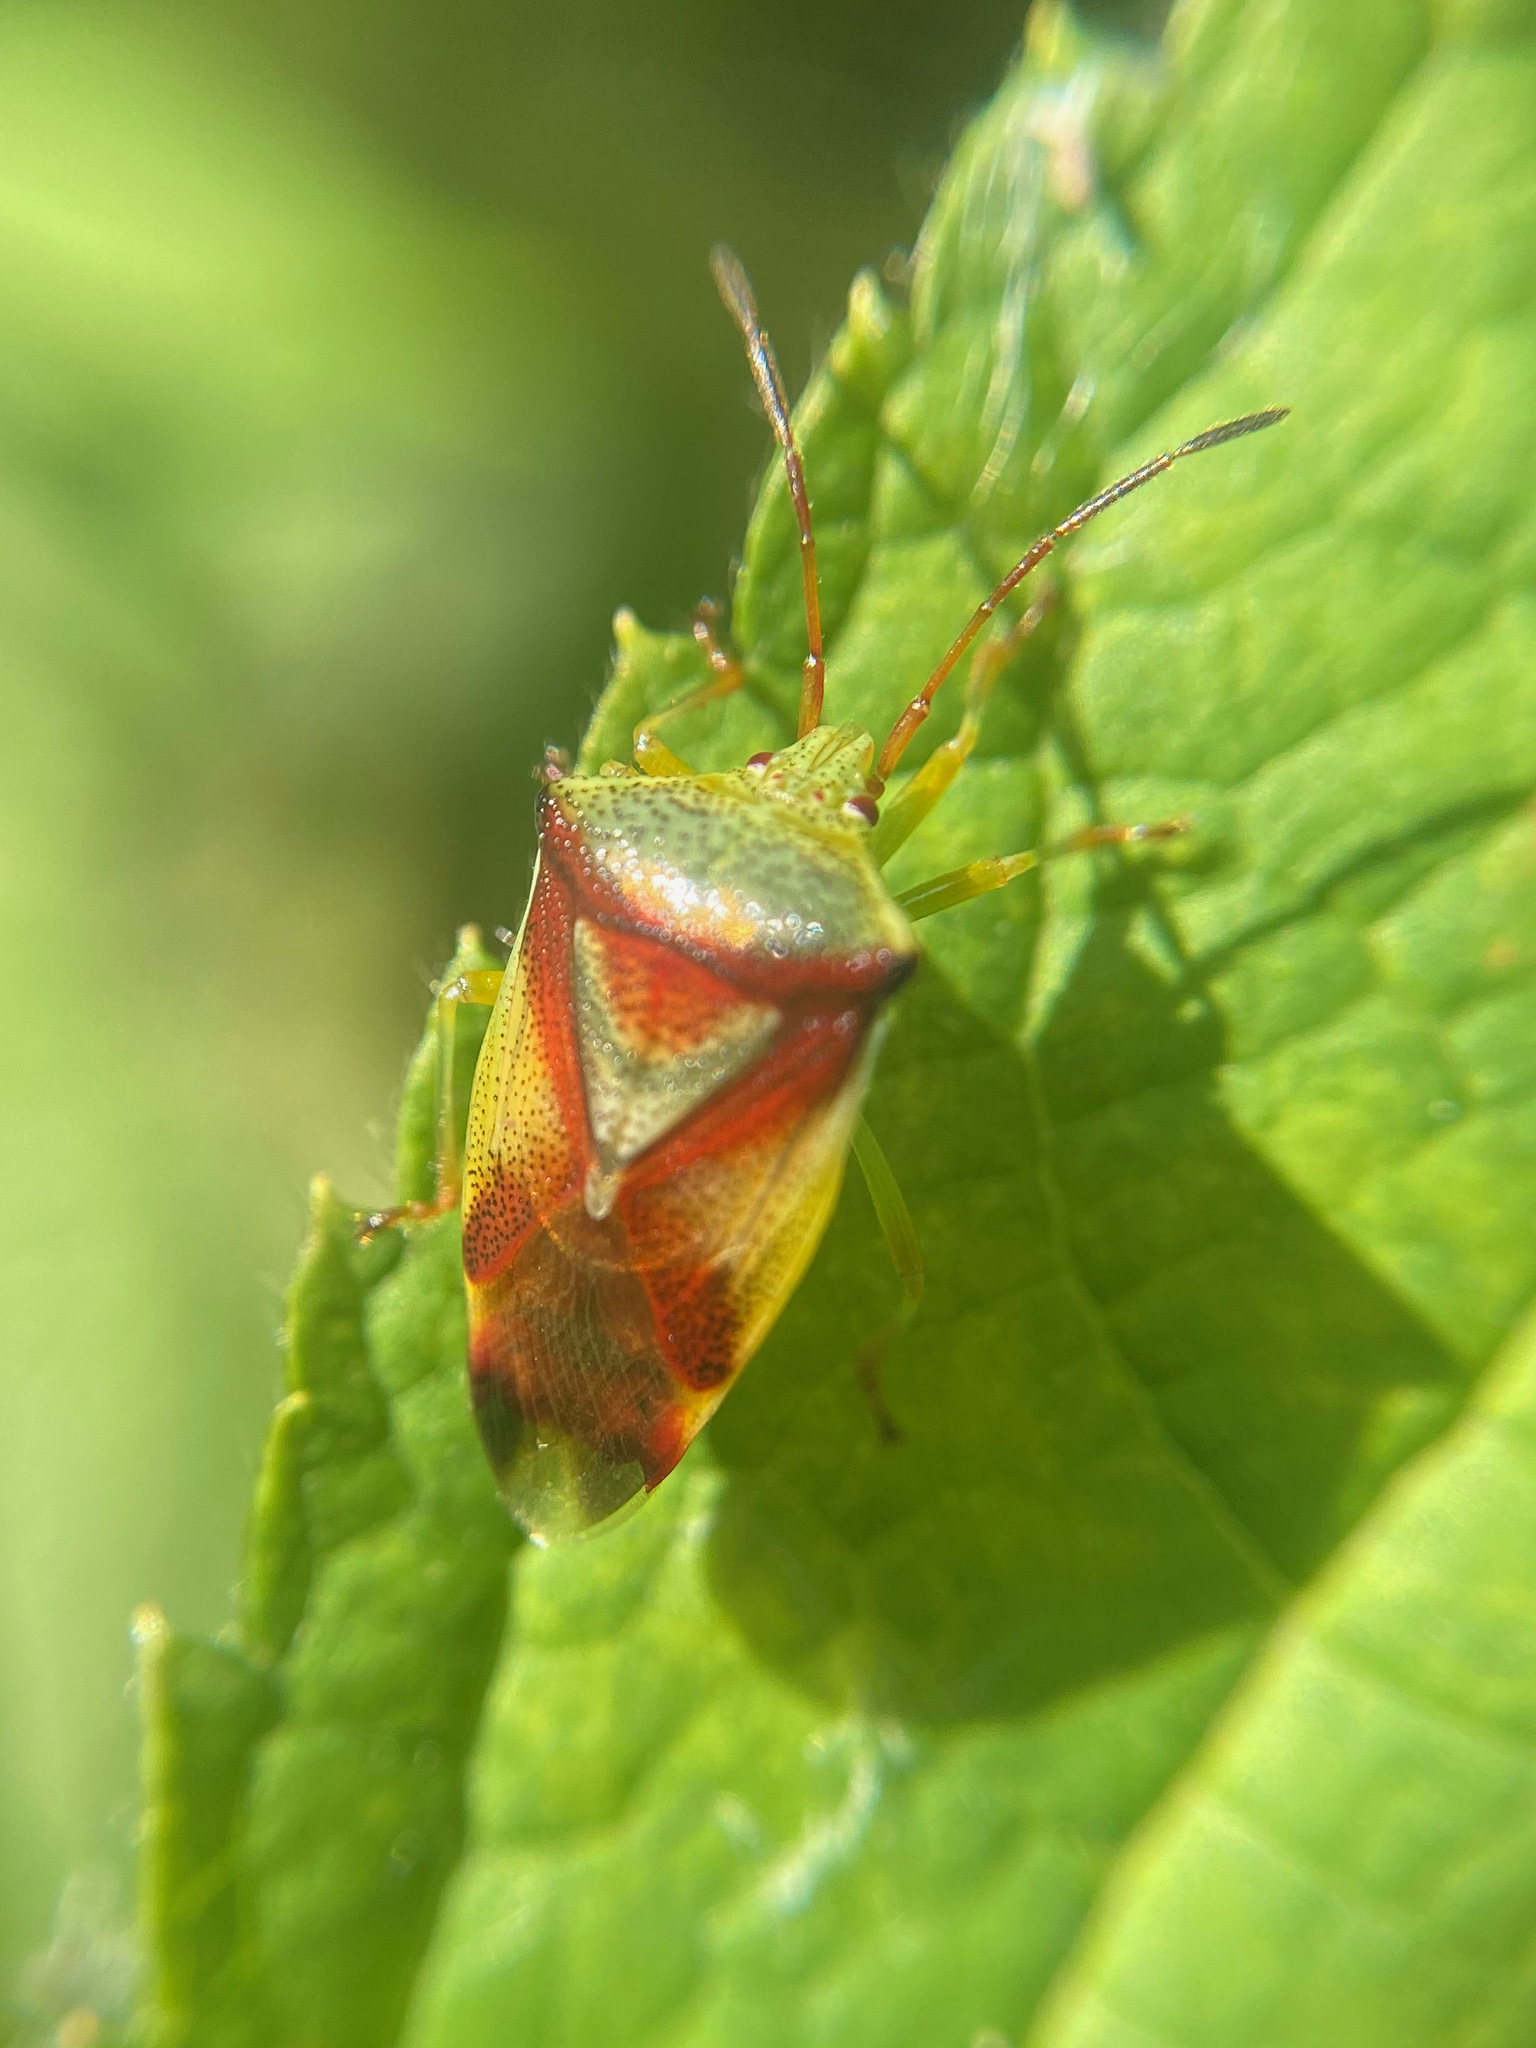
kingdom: Animalia
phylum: Arthropoda
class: Insecta
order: Hemiptera
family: Acanthosomatidae
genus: Elasmostethus
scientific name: Elasmostethus cruciatus
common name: Red-cross shield bug
